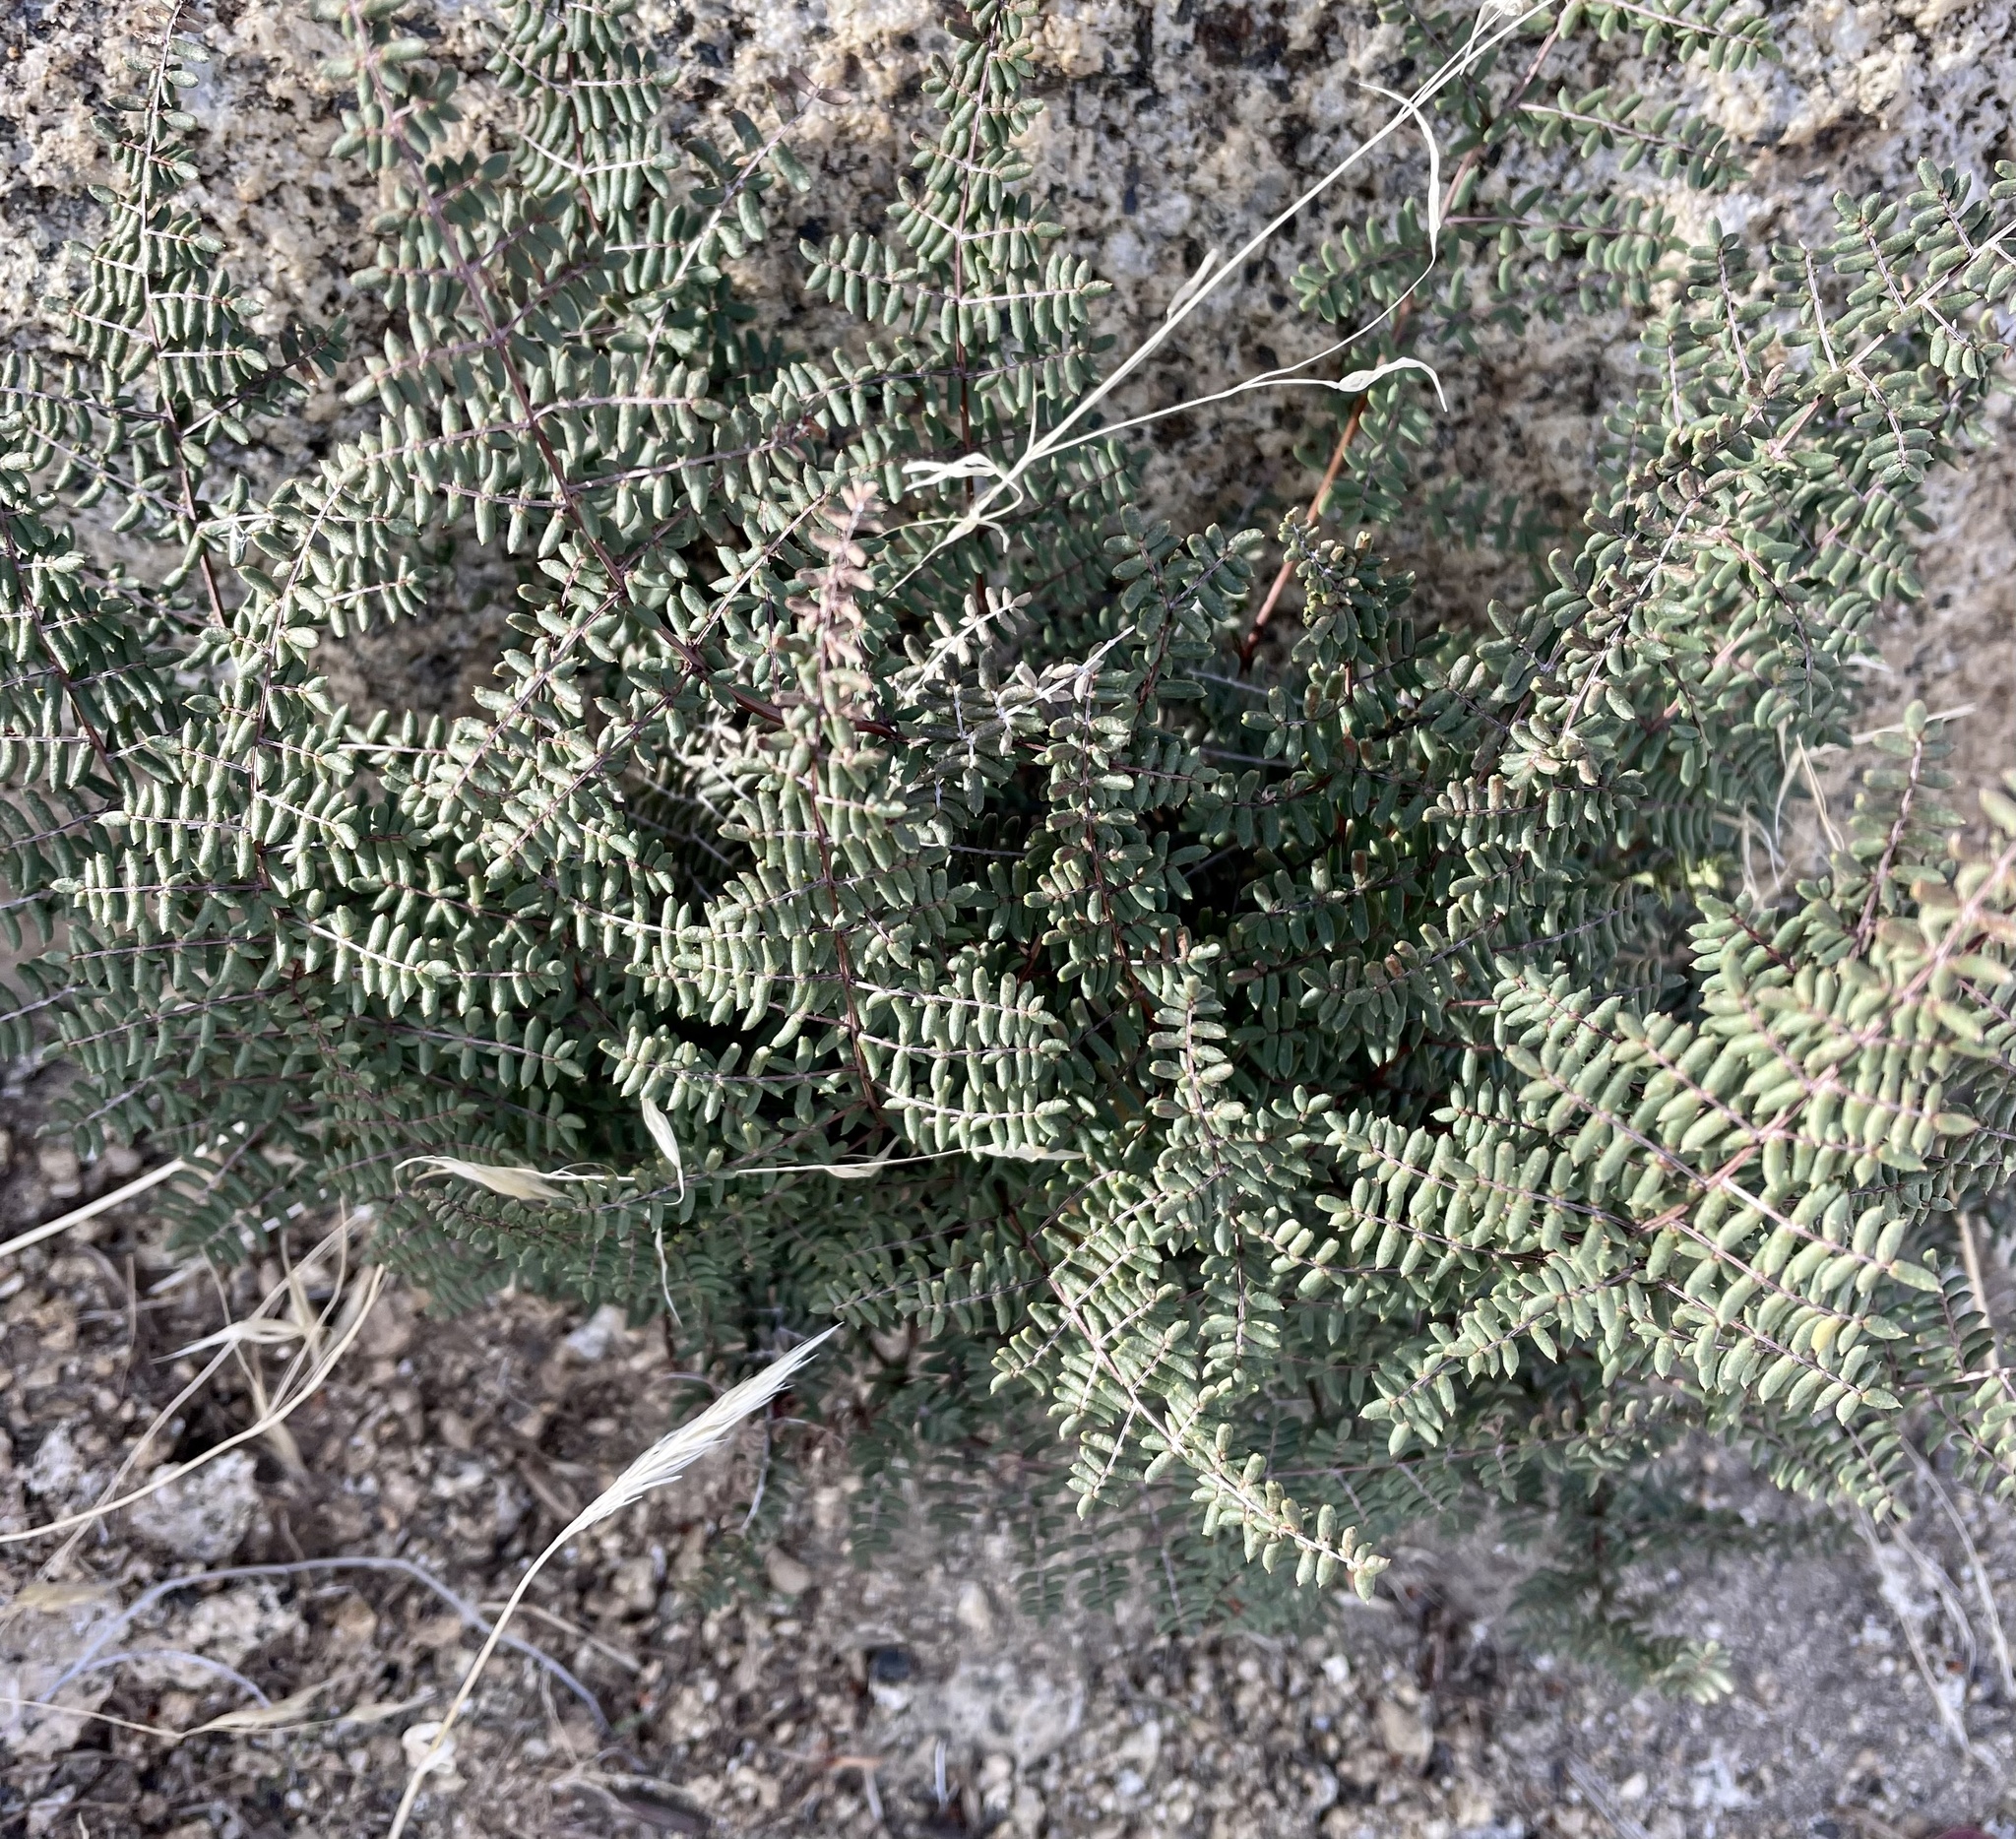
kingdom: Plantae
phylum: Tracheophyta
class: Polypodiopsida
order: Polypodiales
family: Pteridaceae
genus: Pellaea
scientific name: Pellaea mucronata
